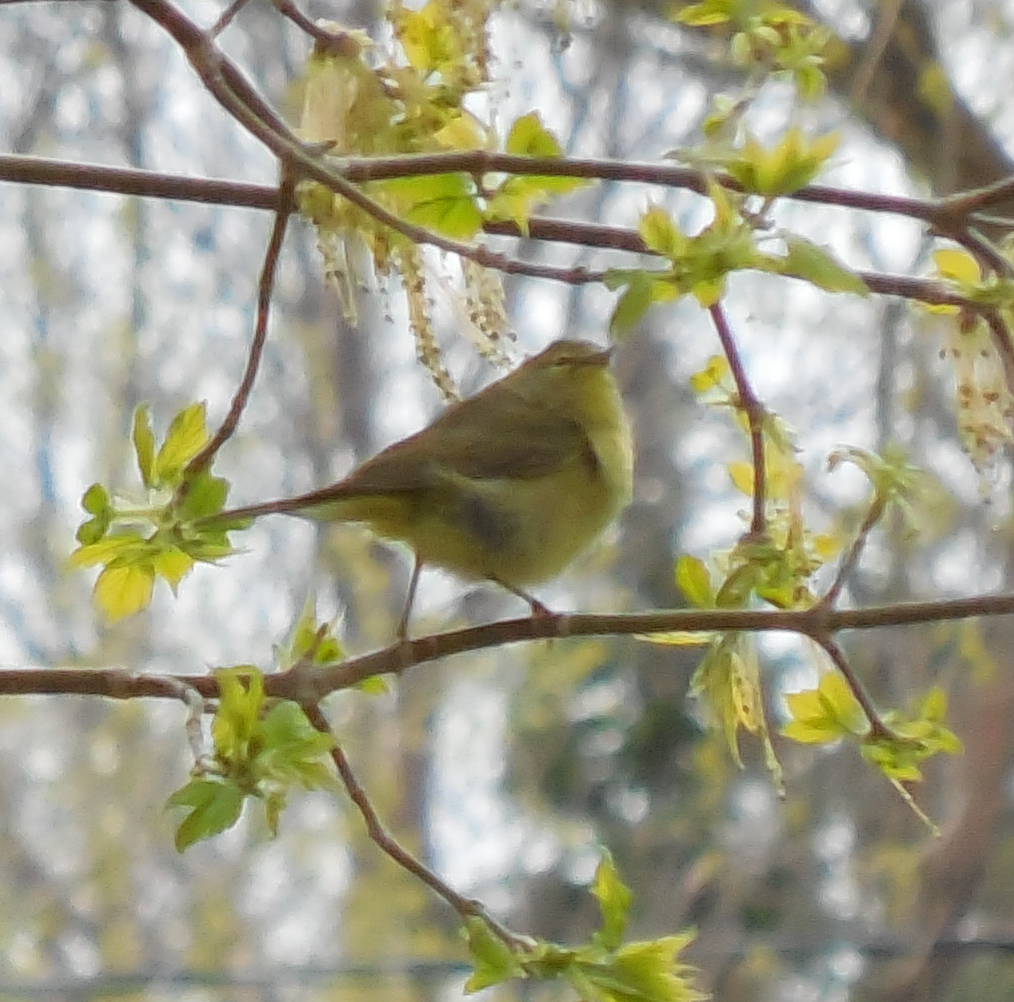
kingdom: Animalia
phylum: Chordata
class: Aves
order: Passeriformes
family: Parulidae
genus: Leiothlypis
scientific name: Leiothlypis celata
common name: Orange-crowned warbler
